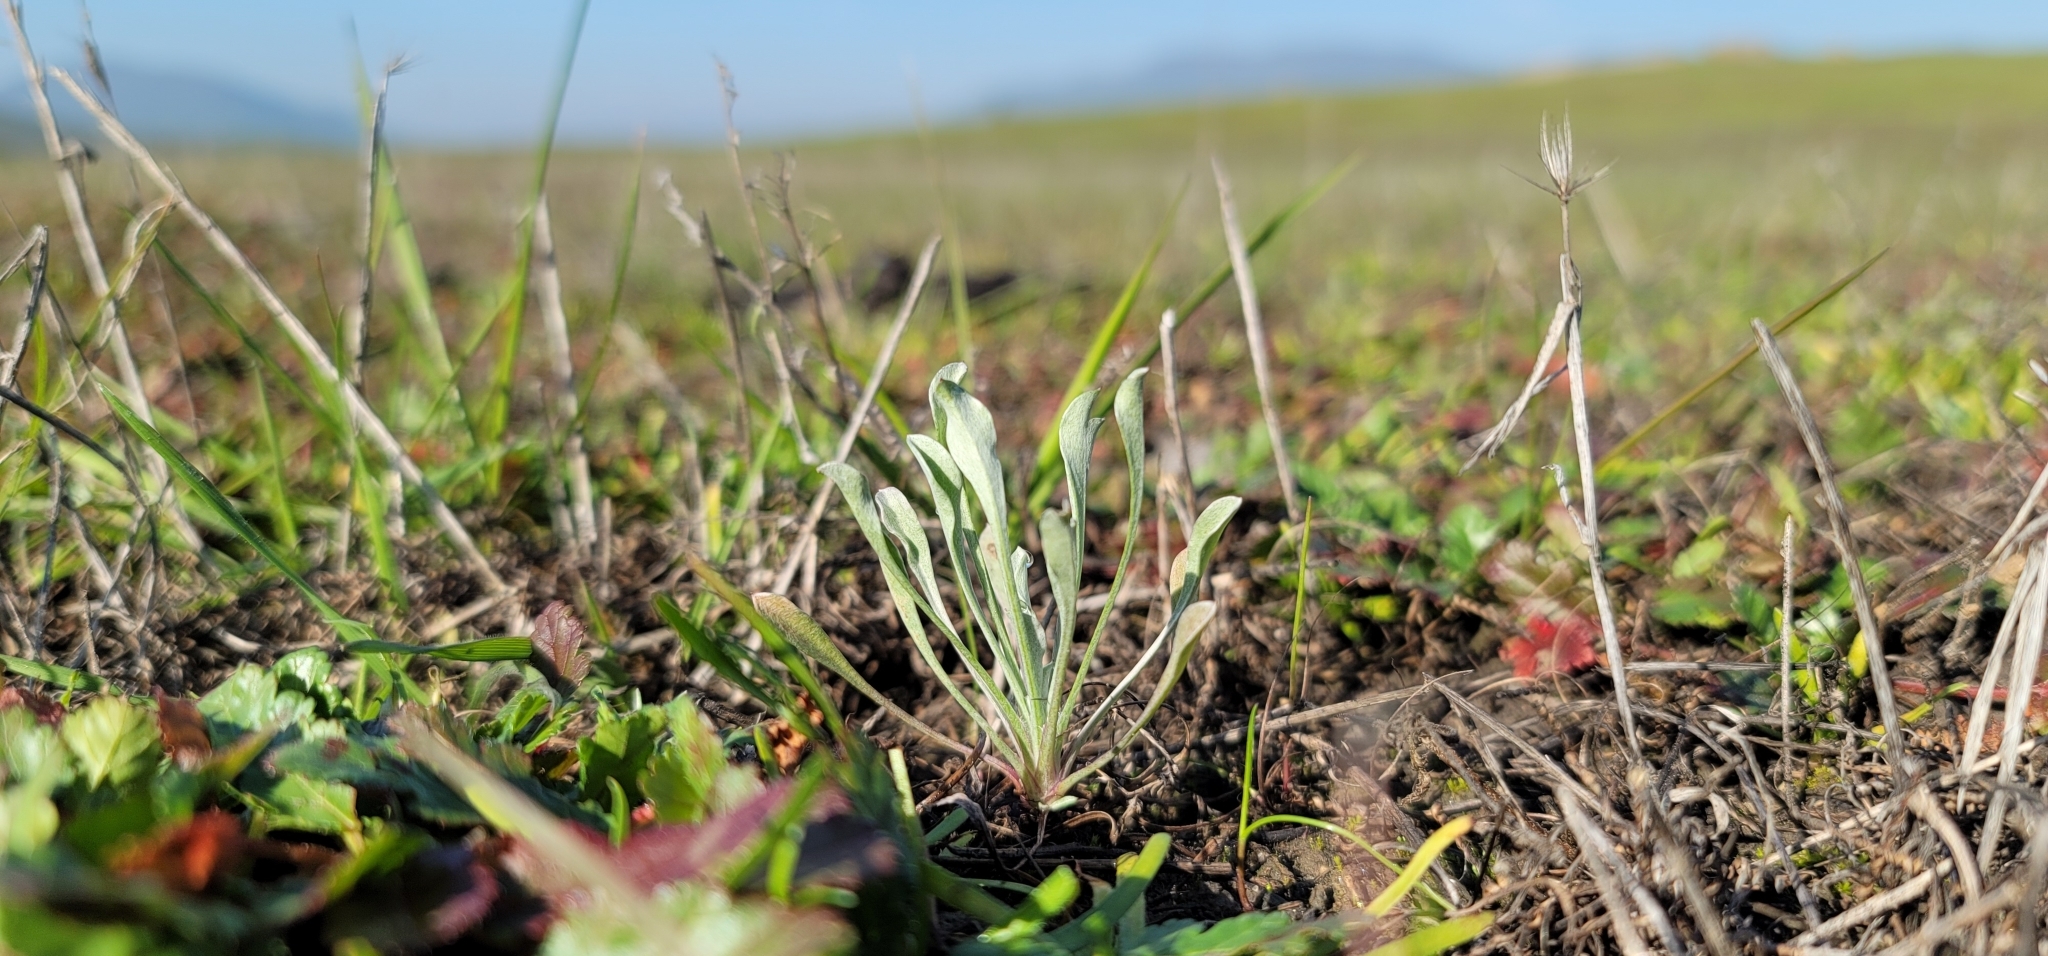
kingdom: Plantae
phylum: Tracheophyta
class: Magnoliopsida
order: Asterales
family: Asteraceae
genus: Hesperevax
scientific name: Hesperevax caulescens
